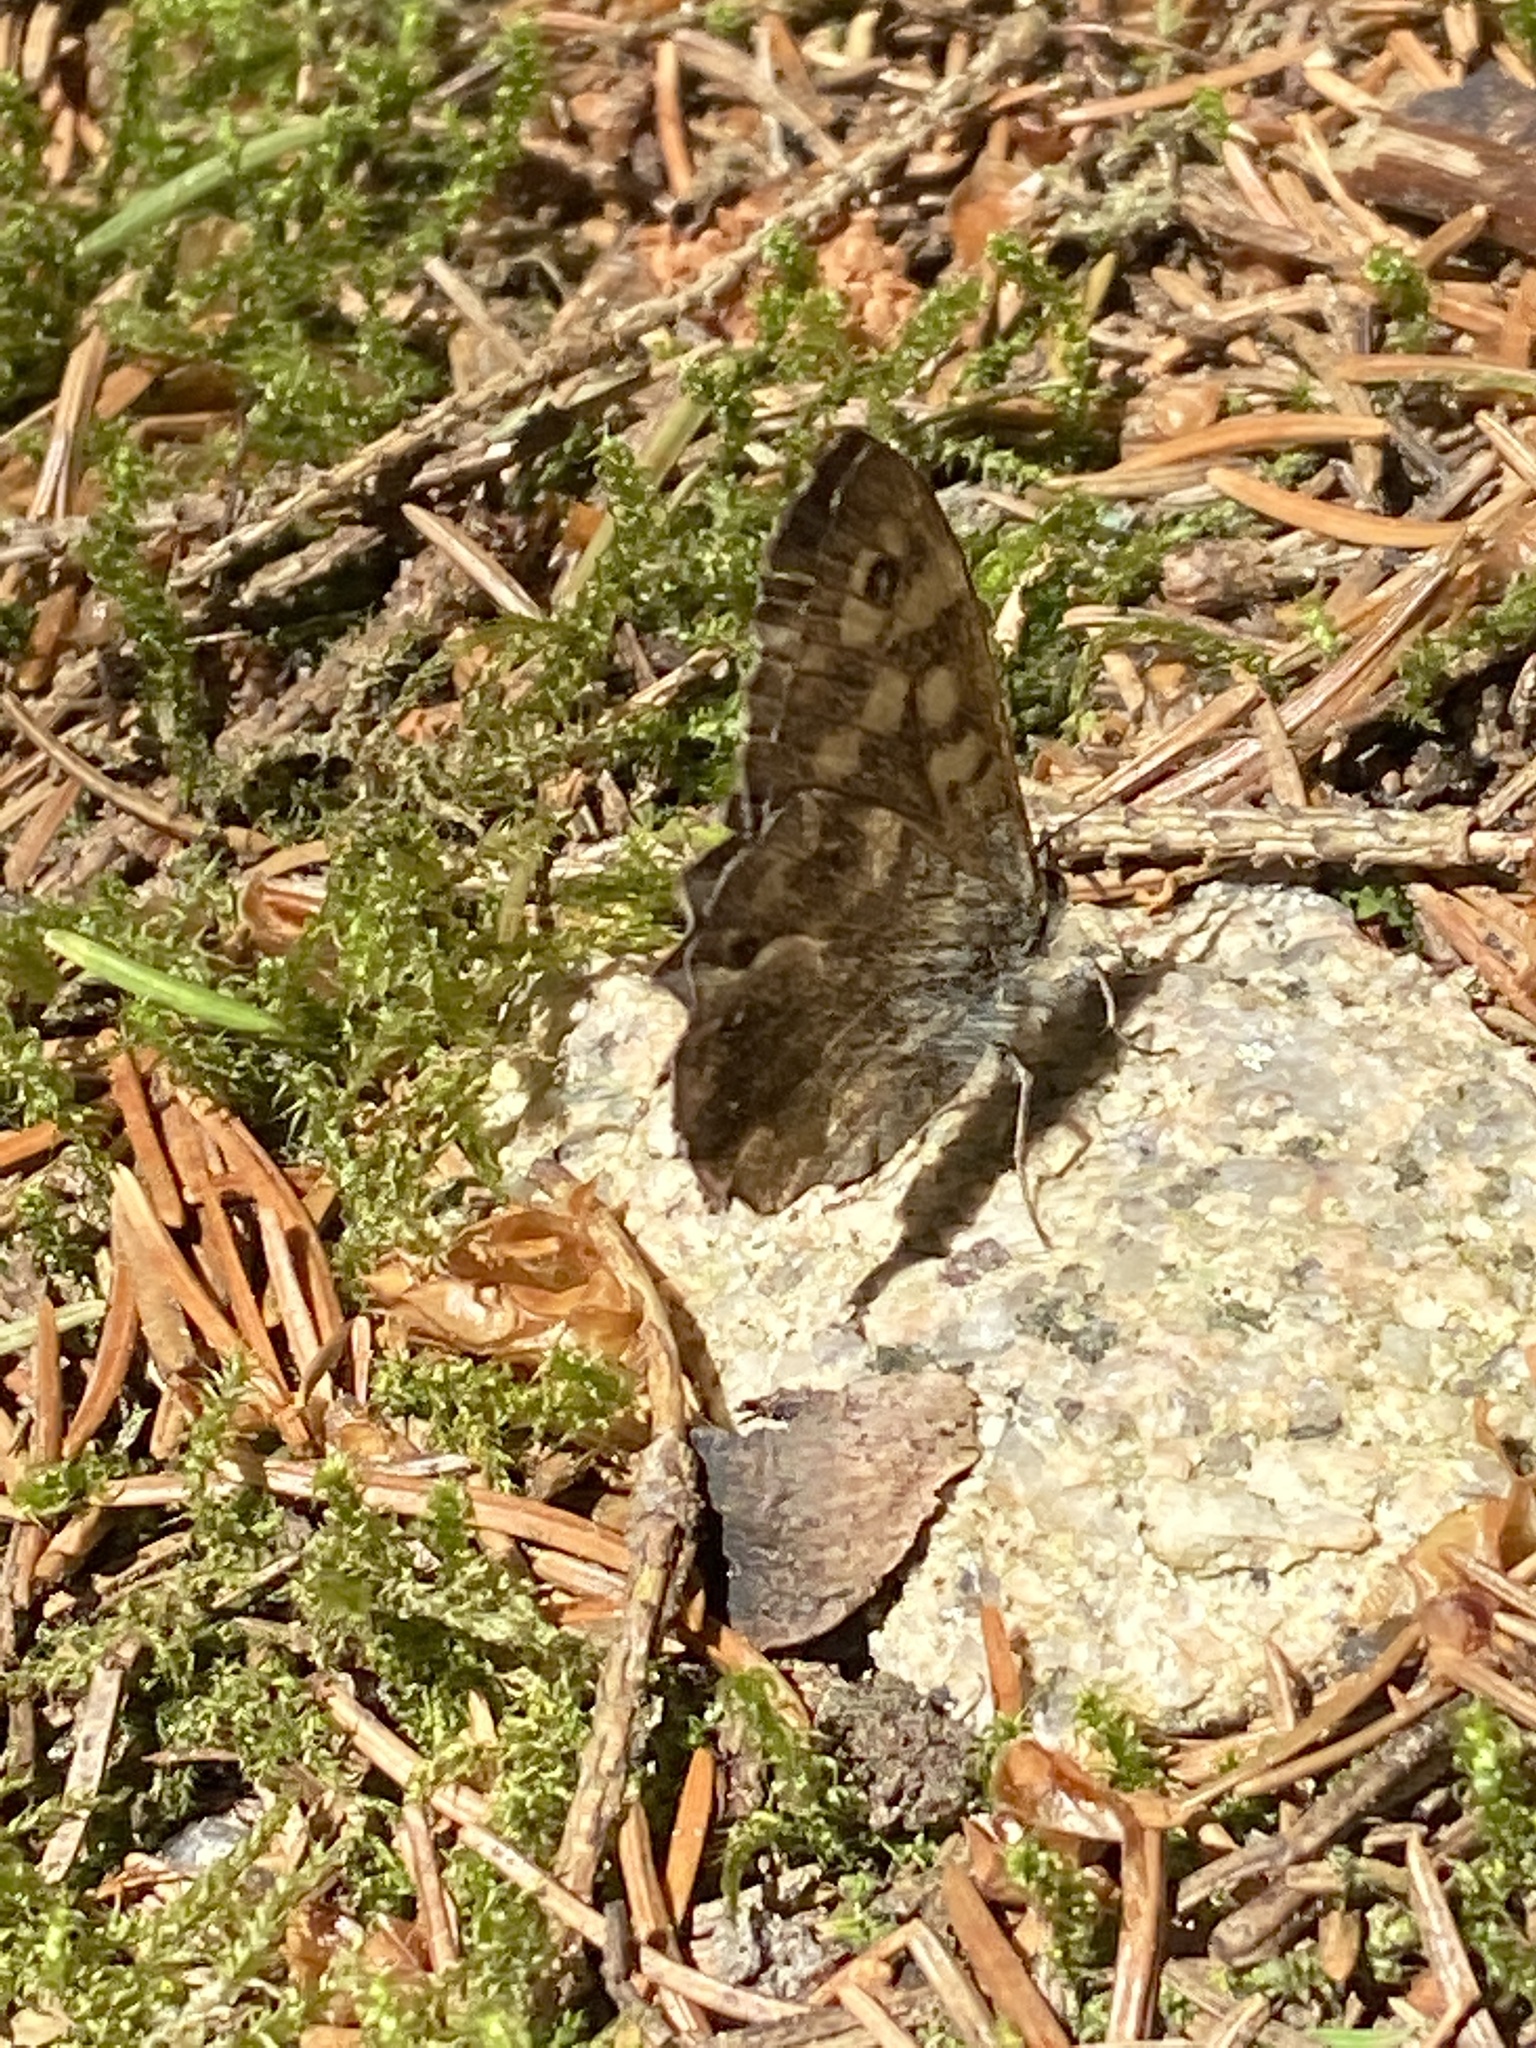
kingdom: Animalia
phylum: Arthropoda
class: Insecta
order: Lepidoptera
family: Nymphalidae
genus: Pararge
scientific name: Pararge aegeria
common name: Speckled wood
